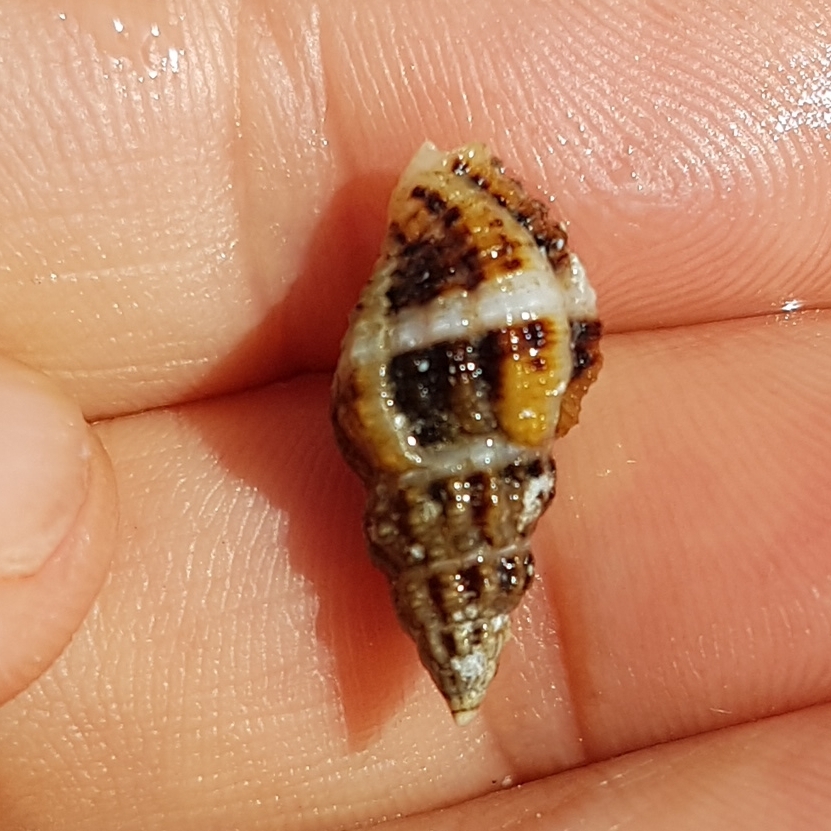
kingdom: Animalia
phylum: Mollusca
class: Gastropoda
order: Neogastropoda
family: Pisaniidae
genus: Aplus
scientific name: Aplus dorbignyi
